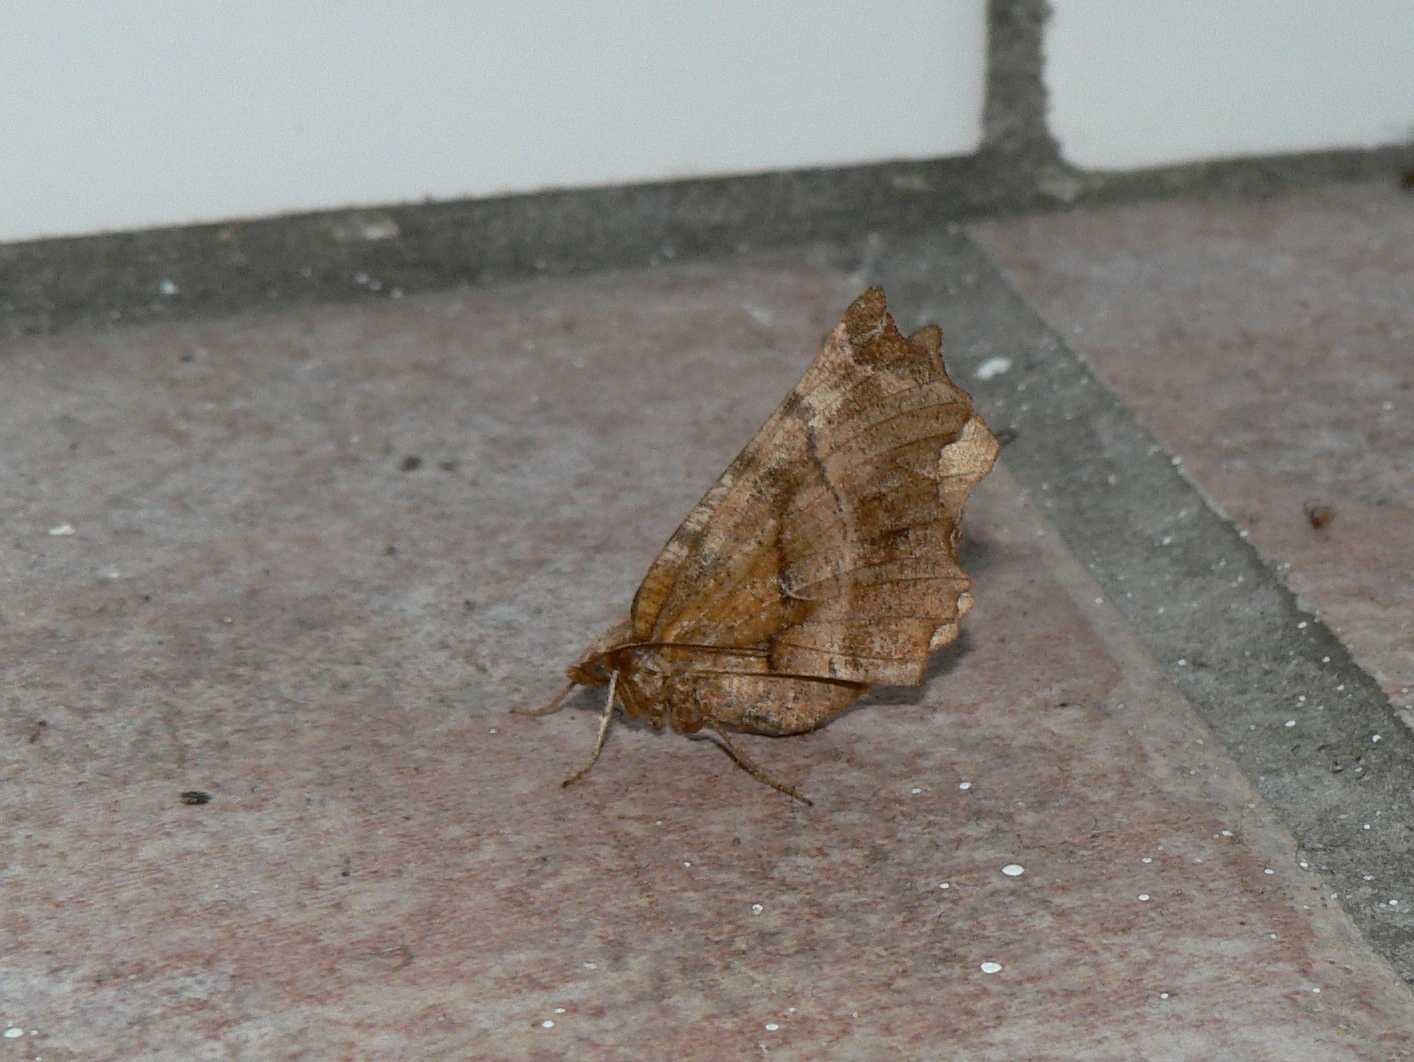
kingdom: Animalia
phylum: Arthropoda
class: Insecta
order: Lepidoptera
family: Geometridae
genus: Selenia
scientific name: Selenia dentaria
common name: Early thorn
